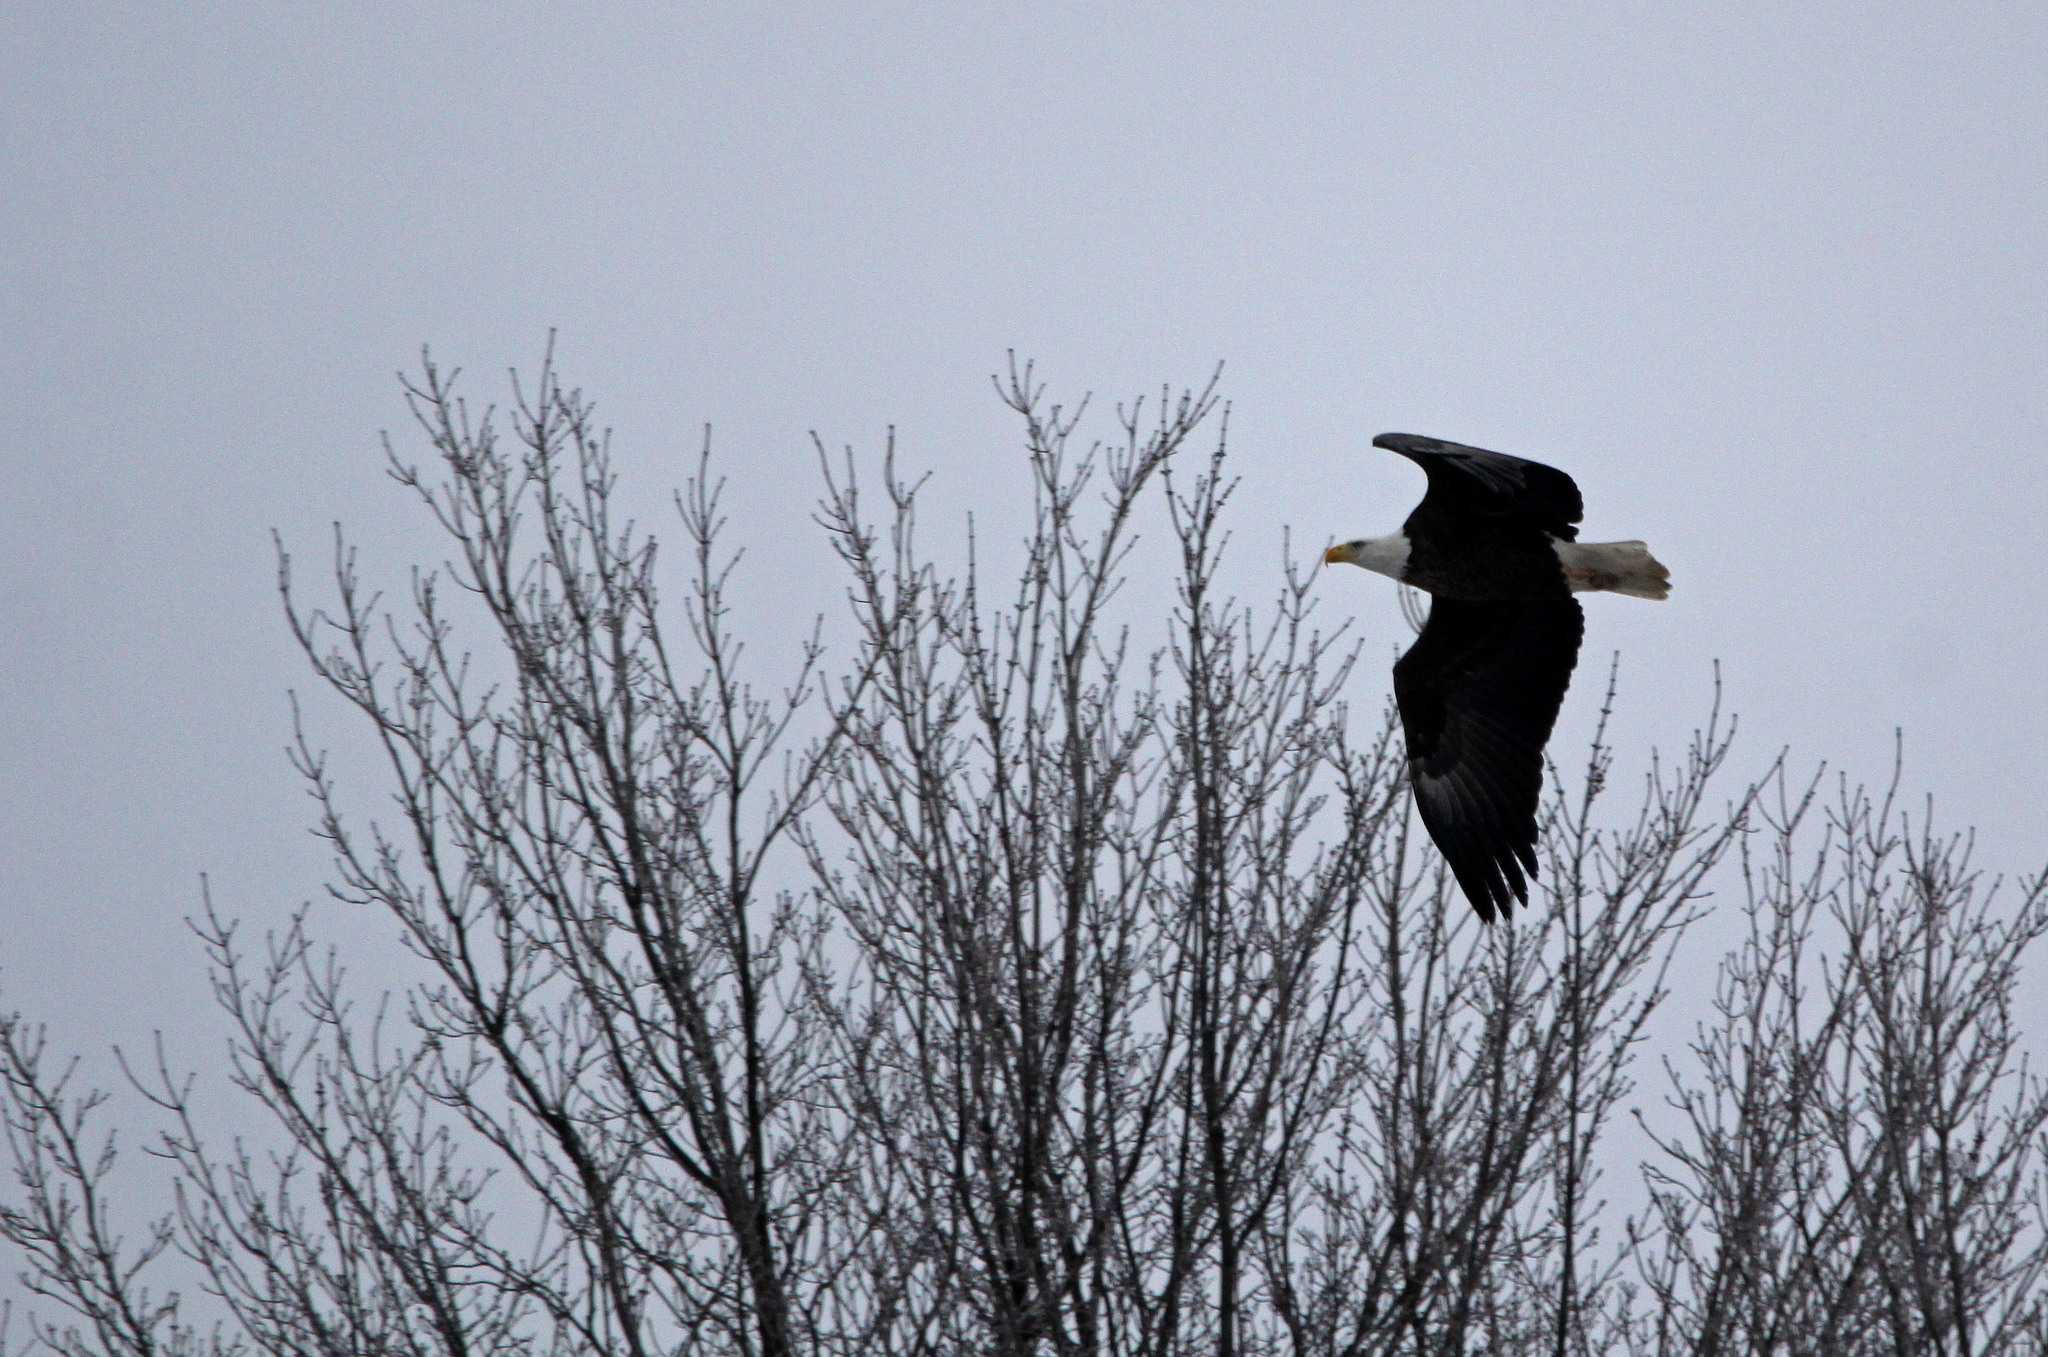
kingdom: Animalia
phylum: Chordata
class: Aves
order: Accipitriformes
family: Accipitridae
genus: Haliaeetus
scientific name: Haliaeetus leucocephalus
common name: Bald eagle
